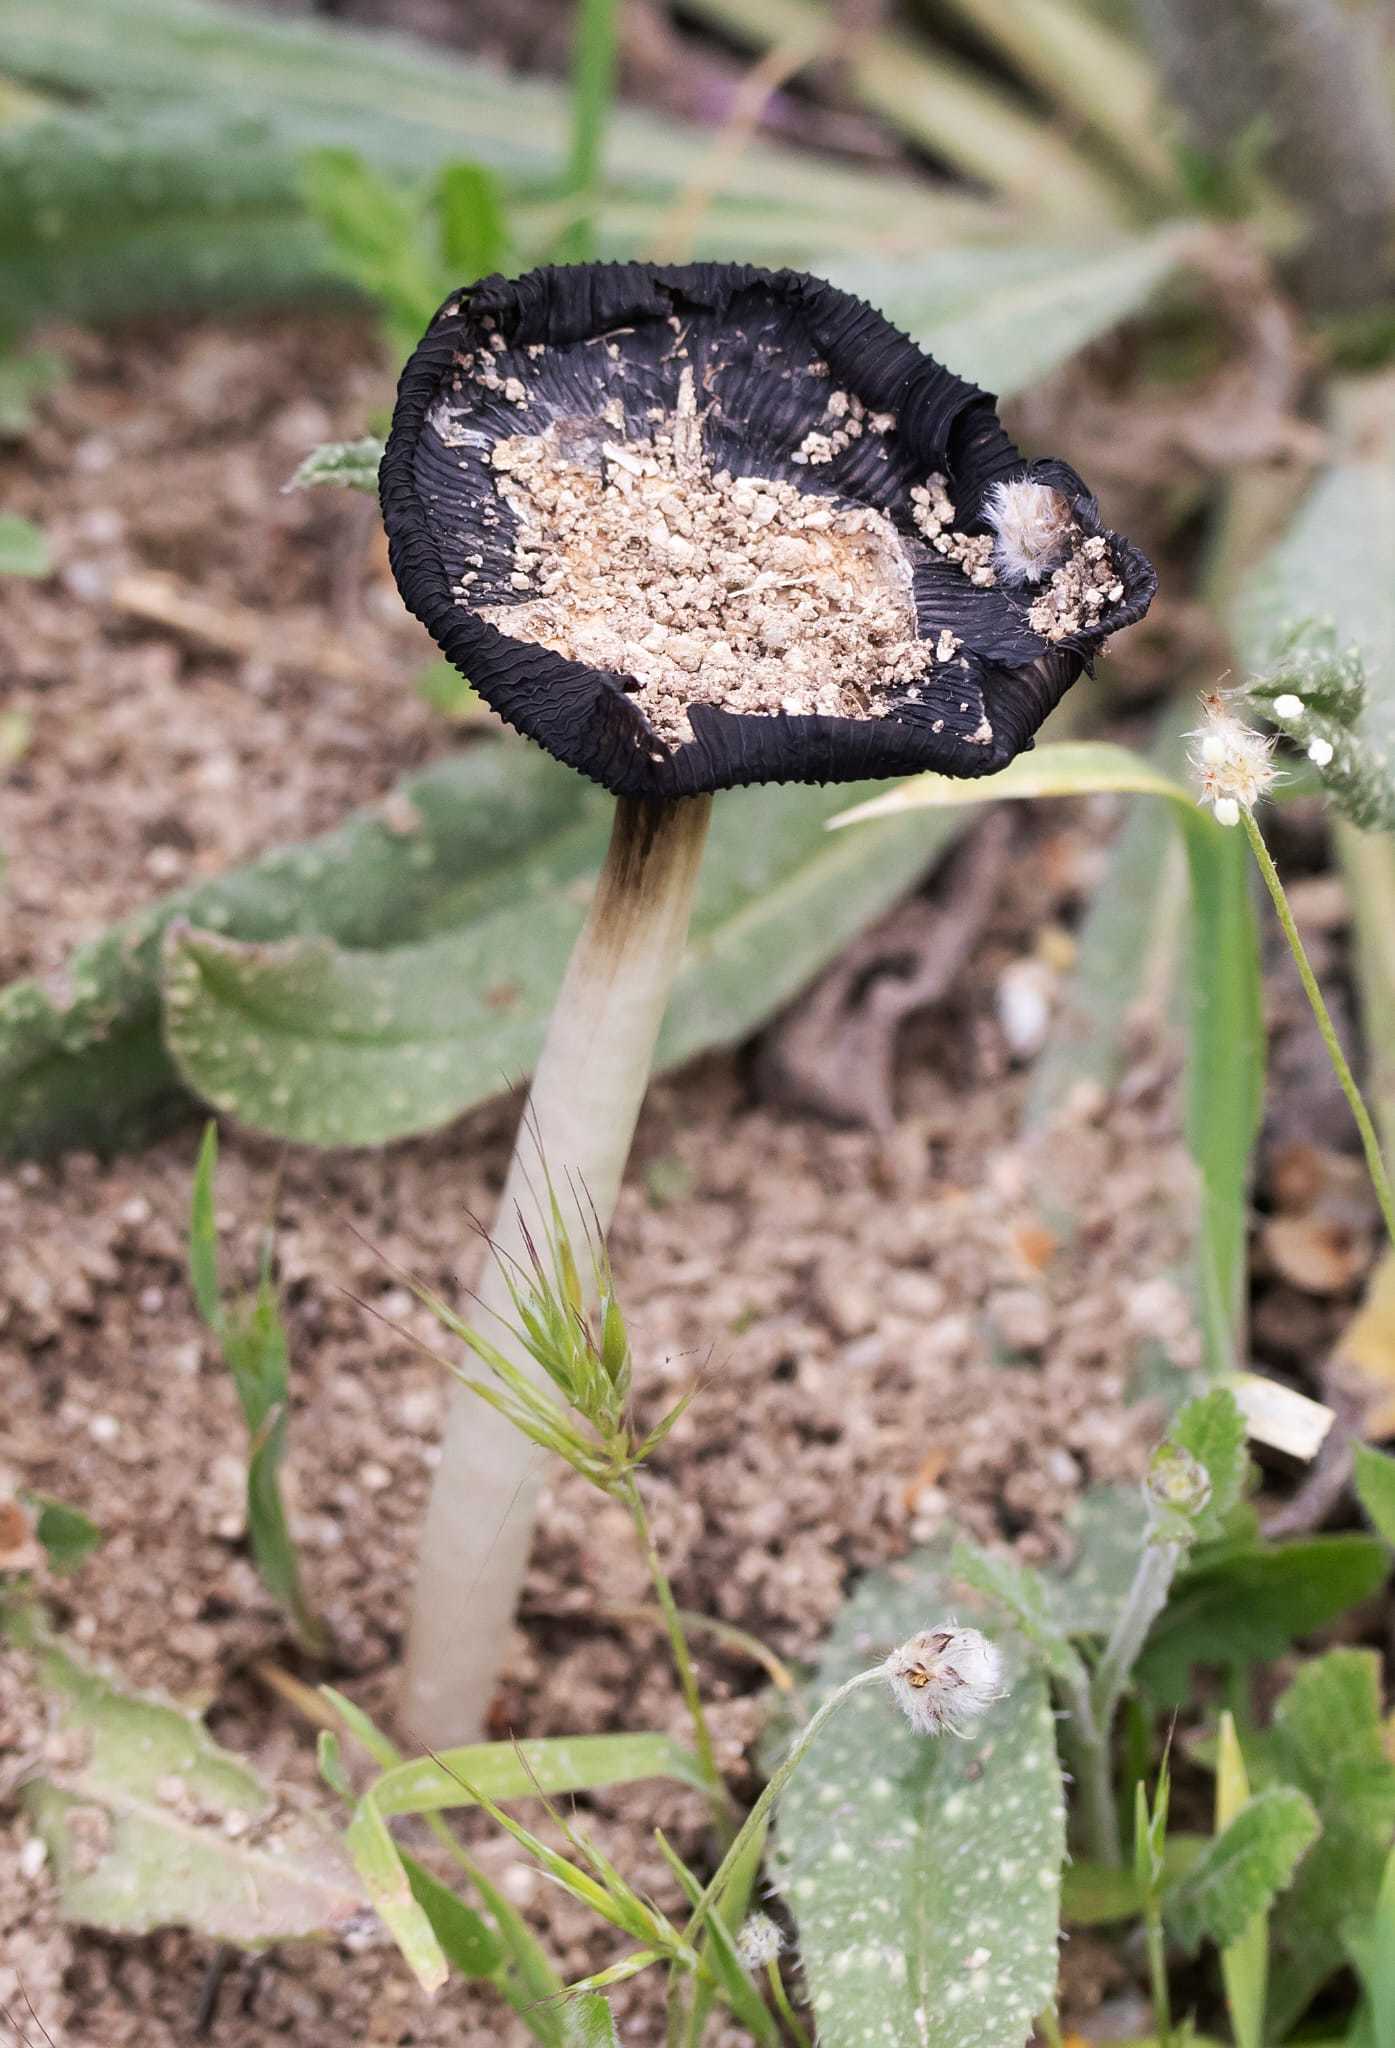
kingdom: Fungi
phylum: Basidiomycota
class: Agaricomycetes
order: Agaricales
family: Agaricaceae
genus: Coprinus
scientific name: Coprinus calyptratus
